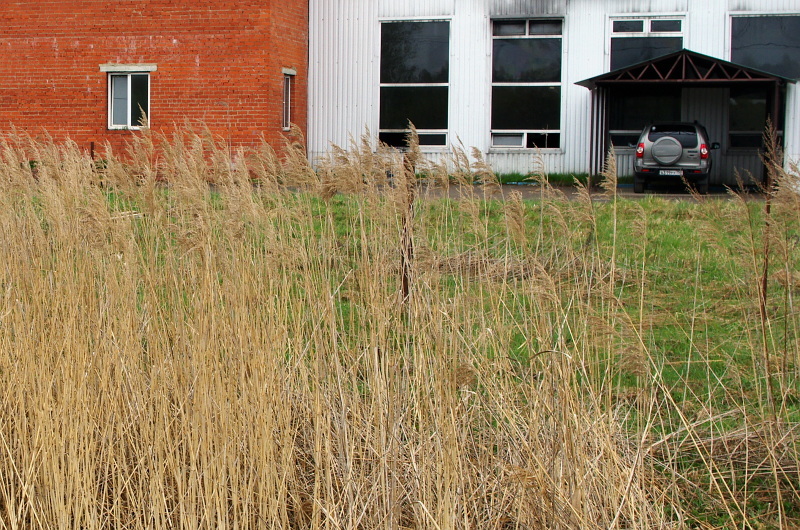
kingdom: Plantae
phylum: Tracheophyta
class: Liliopsida
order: Poales
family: Poaceae
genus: Phragmites
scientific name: Phragmites australis
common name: Common reed
